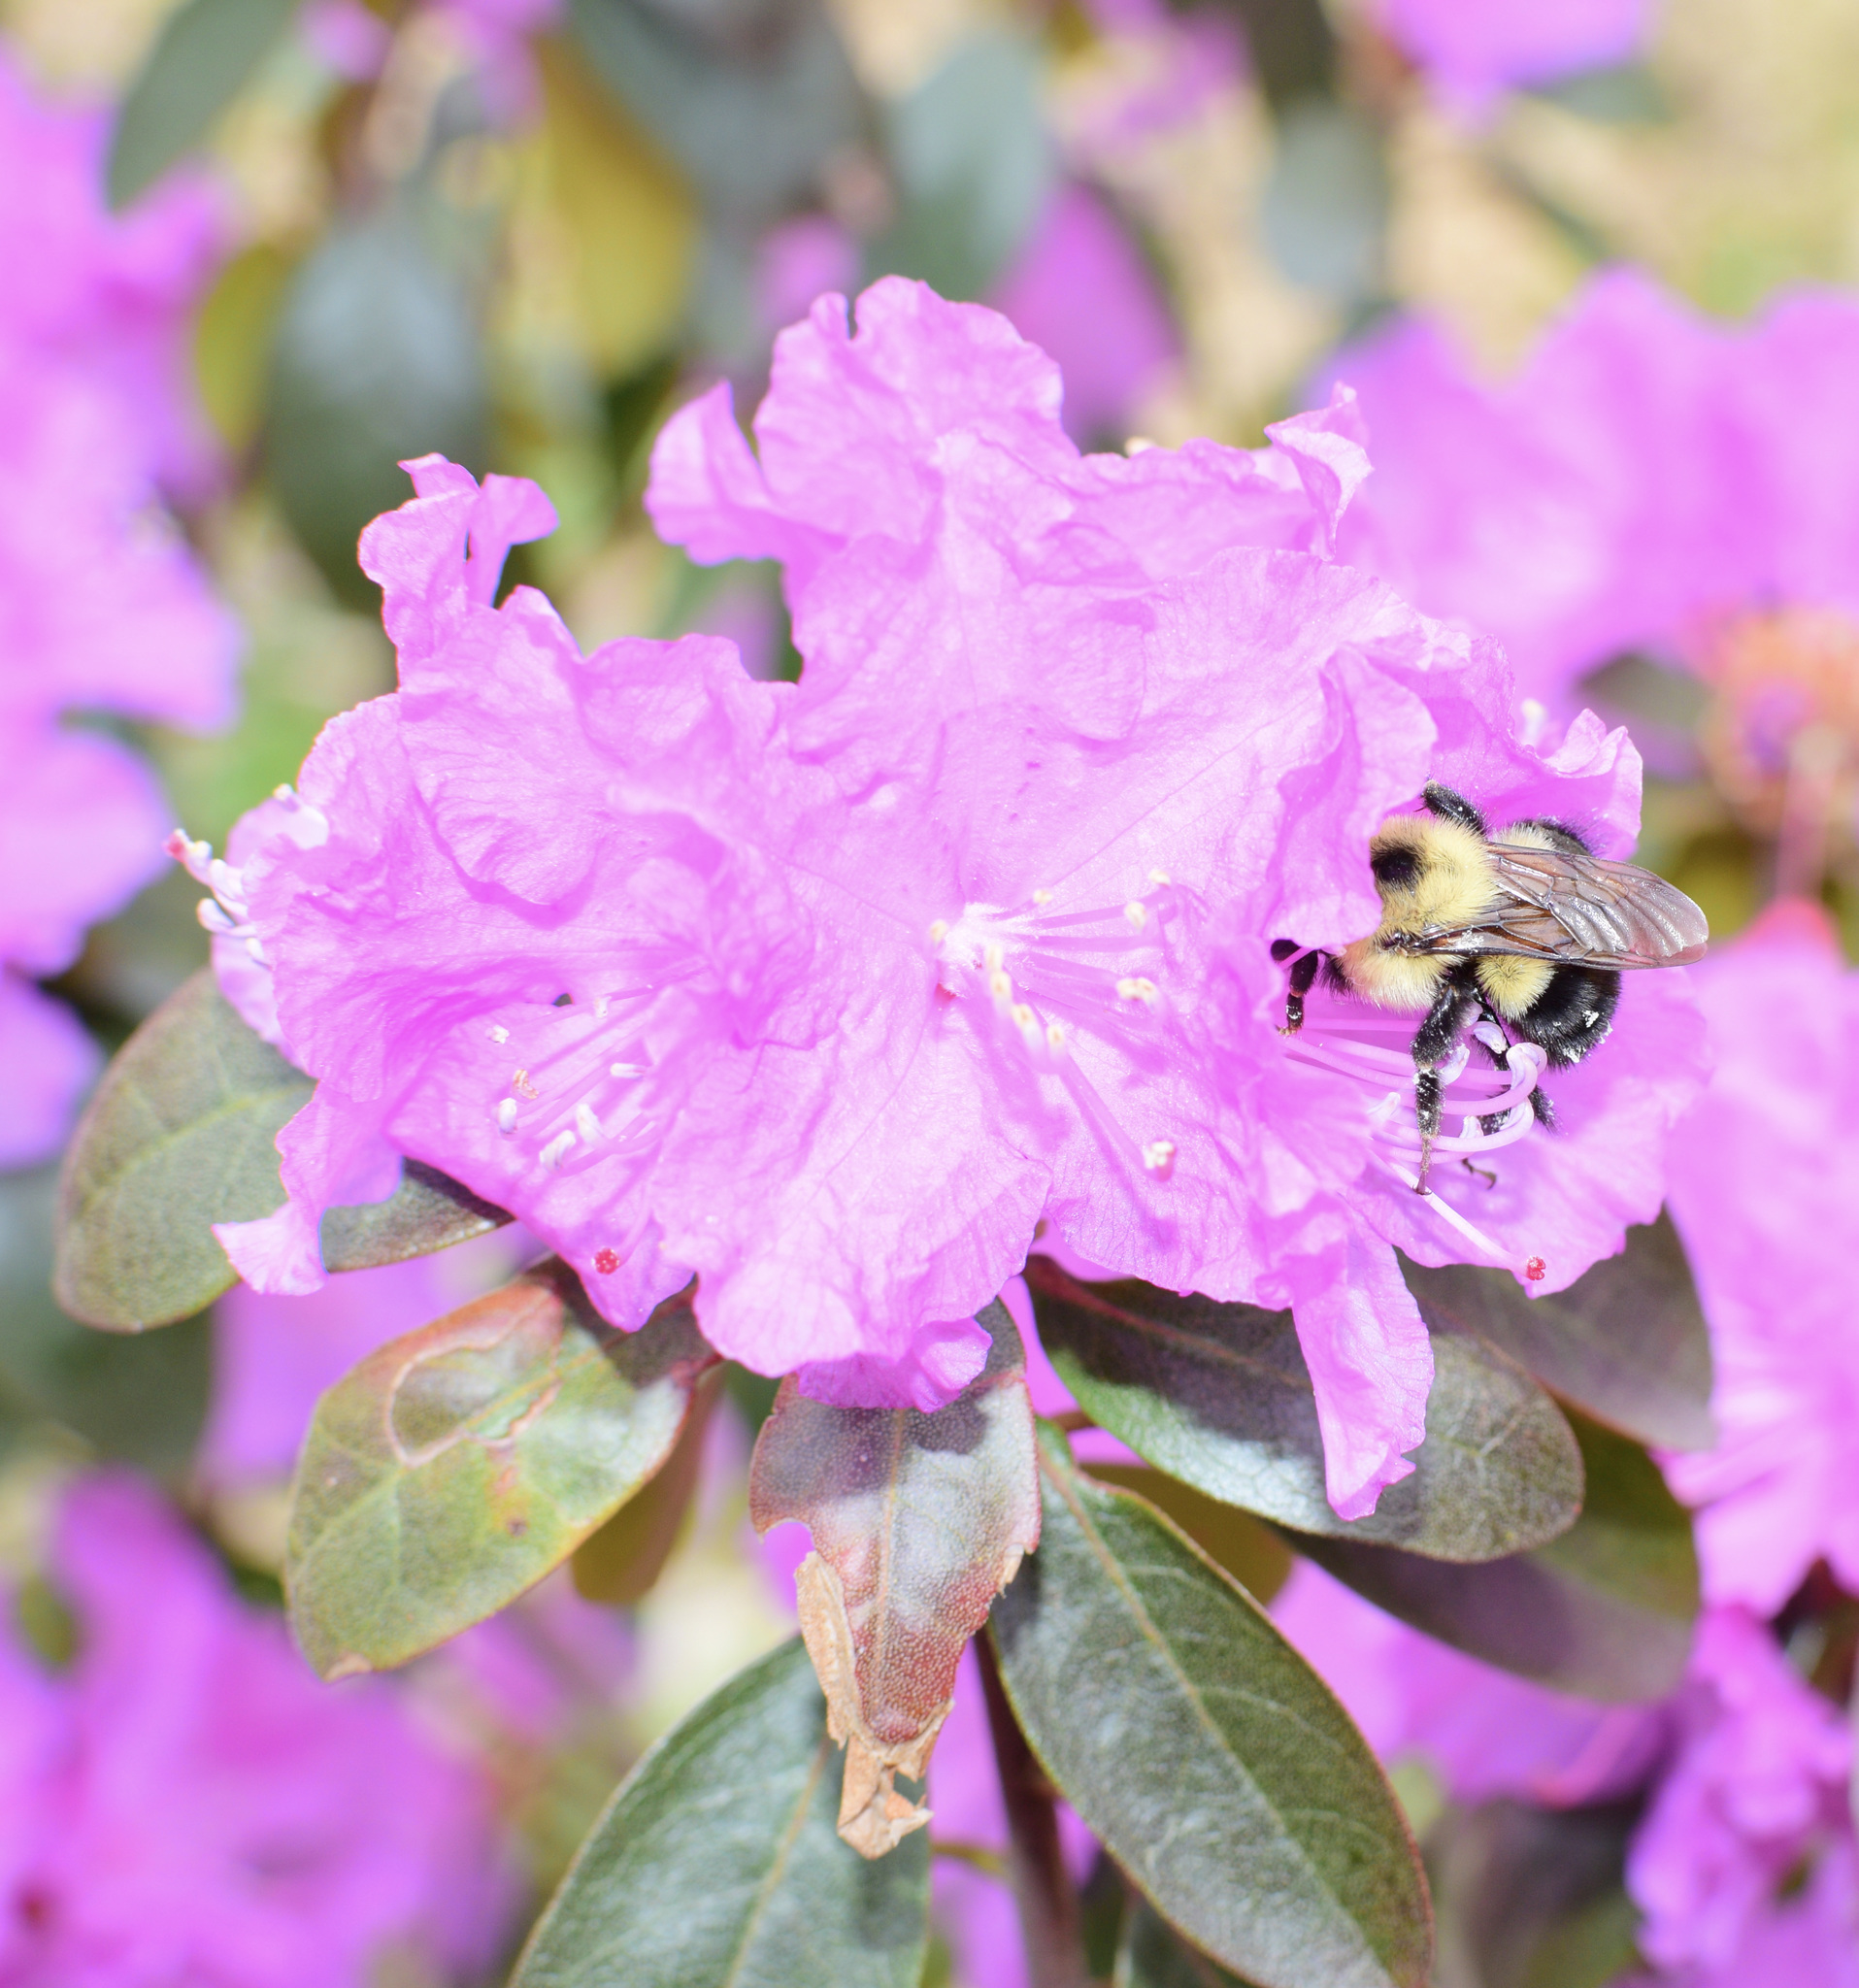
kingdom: Animalia
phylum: Arthropoda
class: Insecta
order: Hymenoptera
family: Apidae
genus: Bombus
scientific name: Bombus bimaculatus
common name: Two-spotted bumble bee
